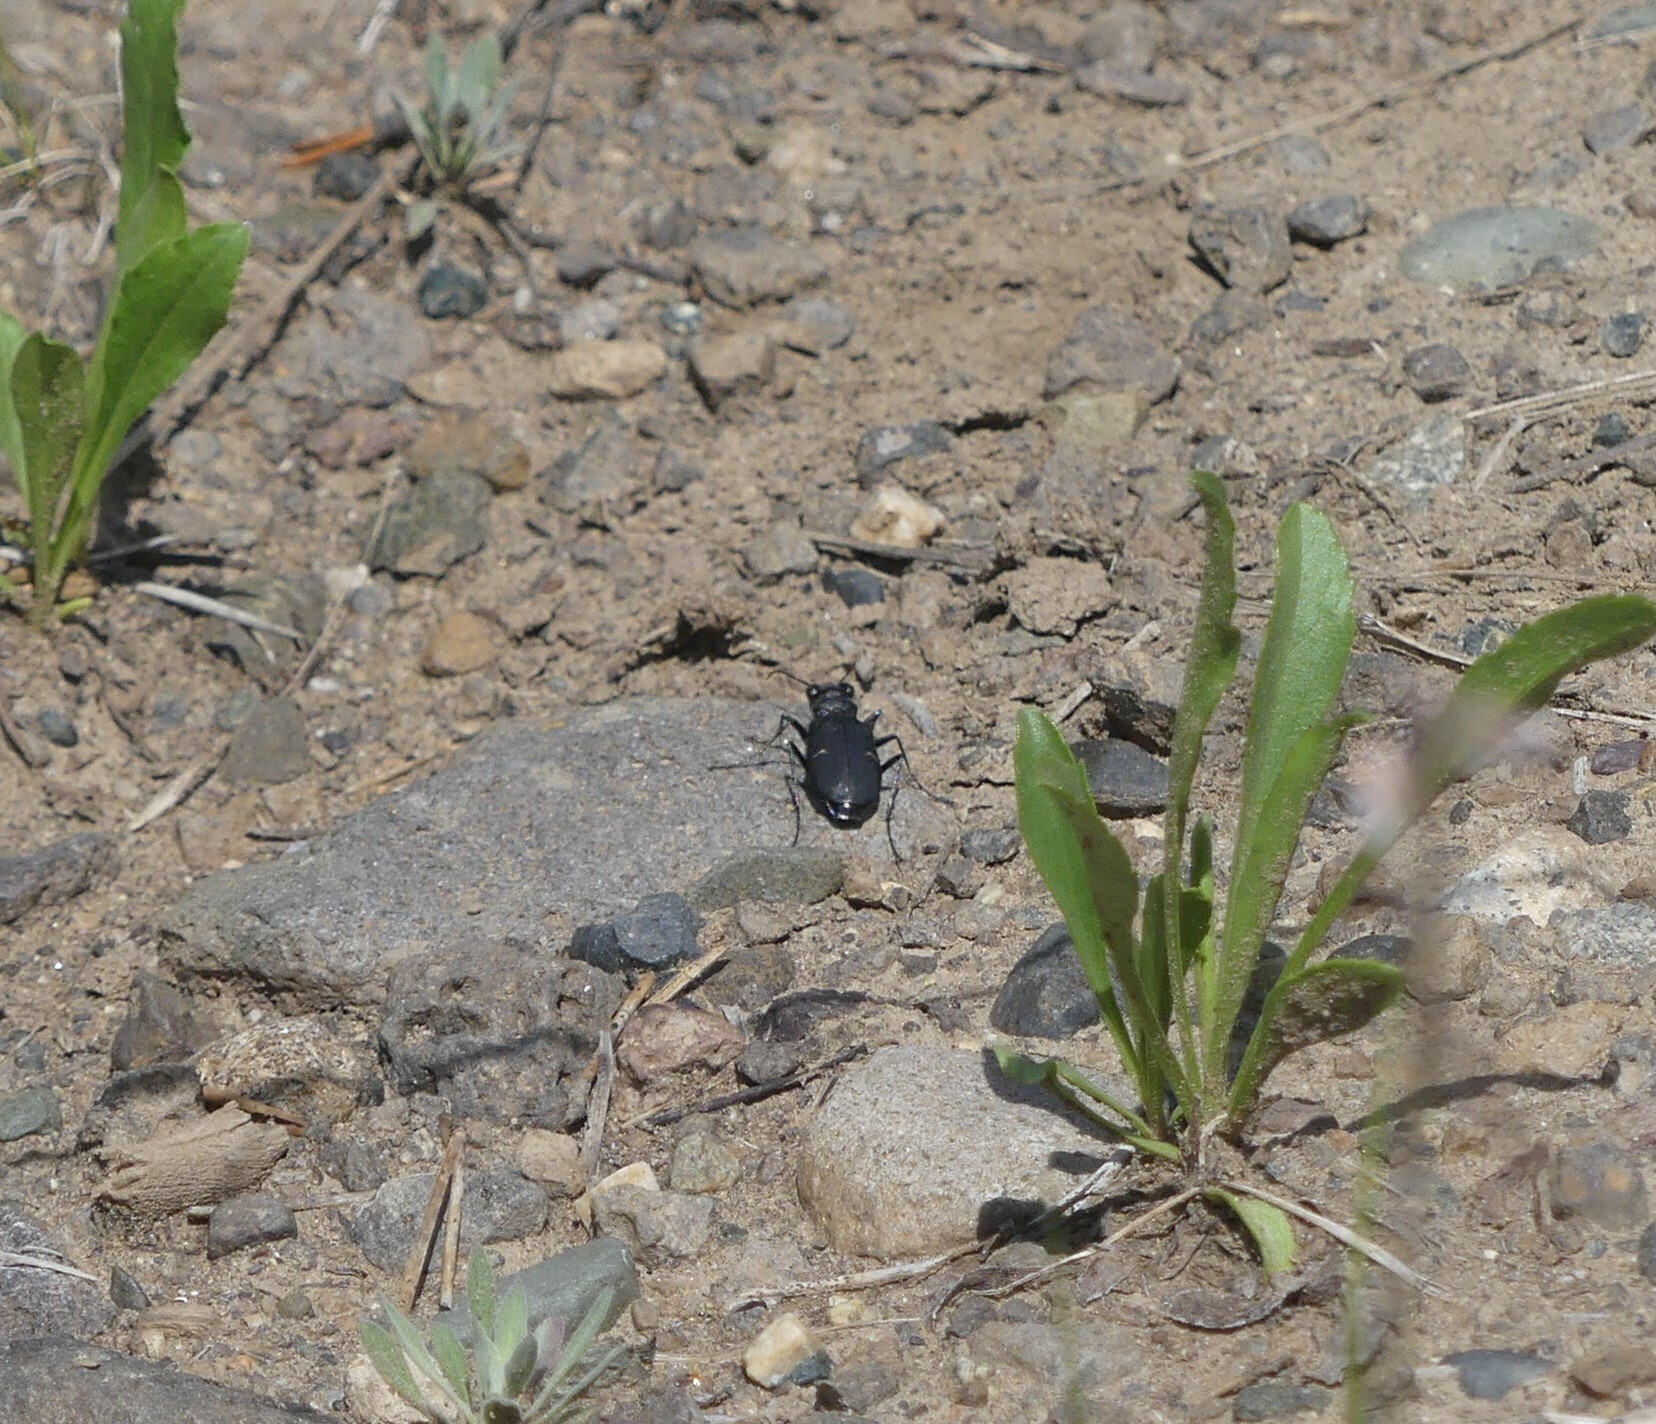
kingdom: Animalia
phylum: Arthropoda
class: Insecta
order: Coleoptera
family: Carabidae
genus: Cicindela
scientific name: Cicindela longilabris
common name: Boreal long-lipped tiger beetle
